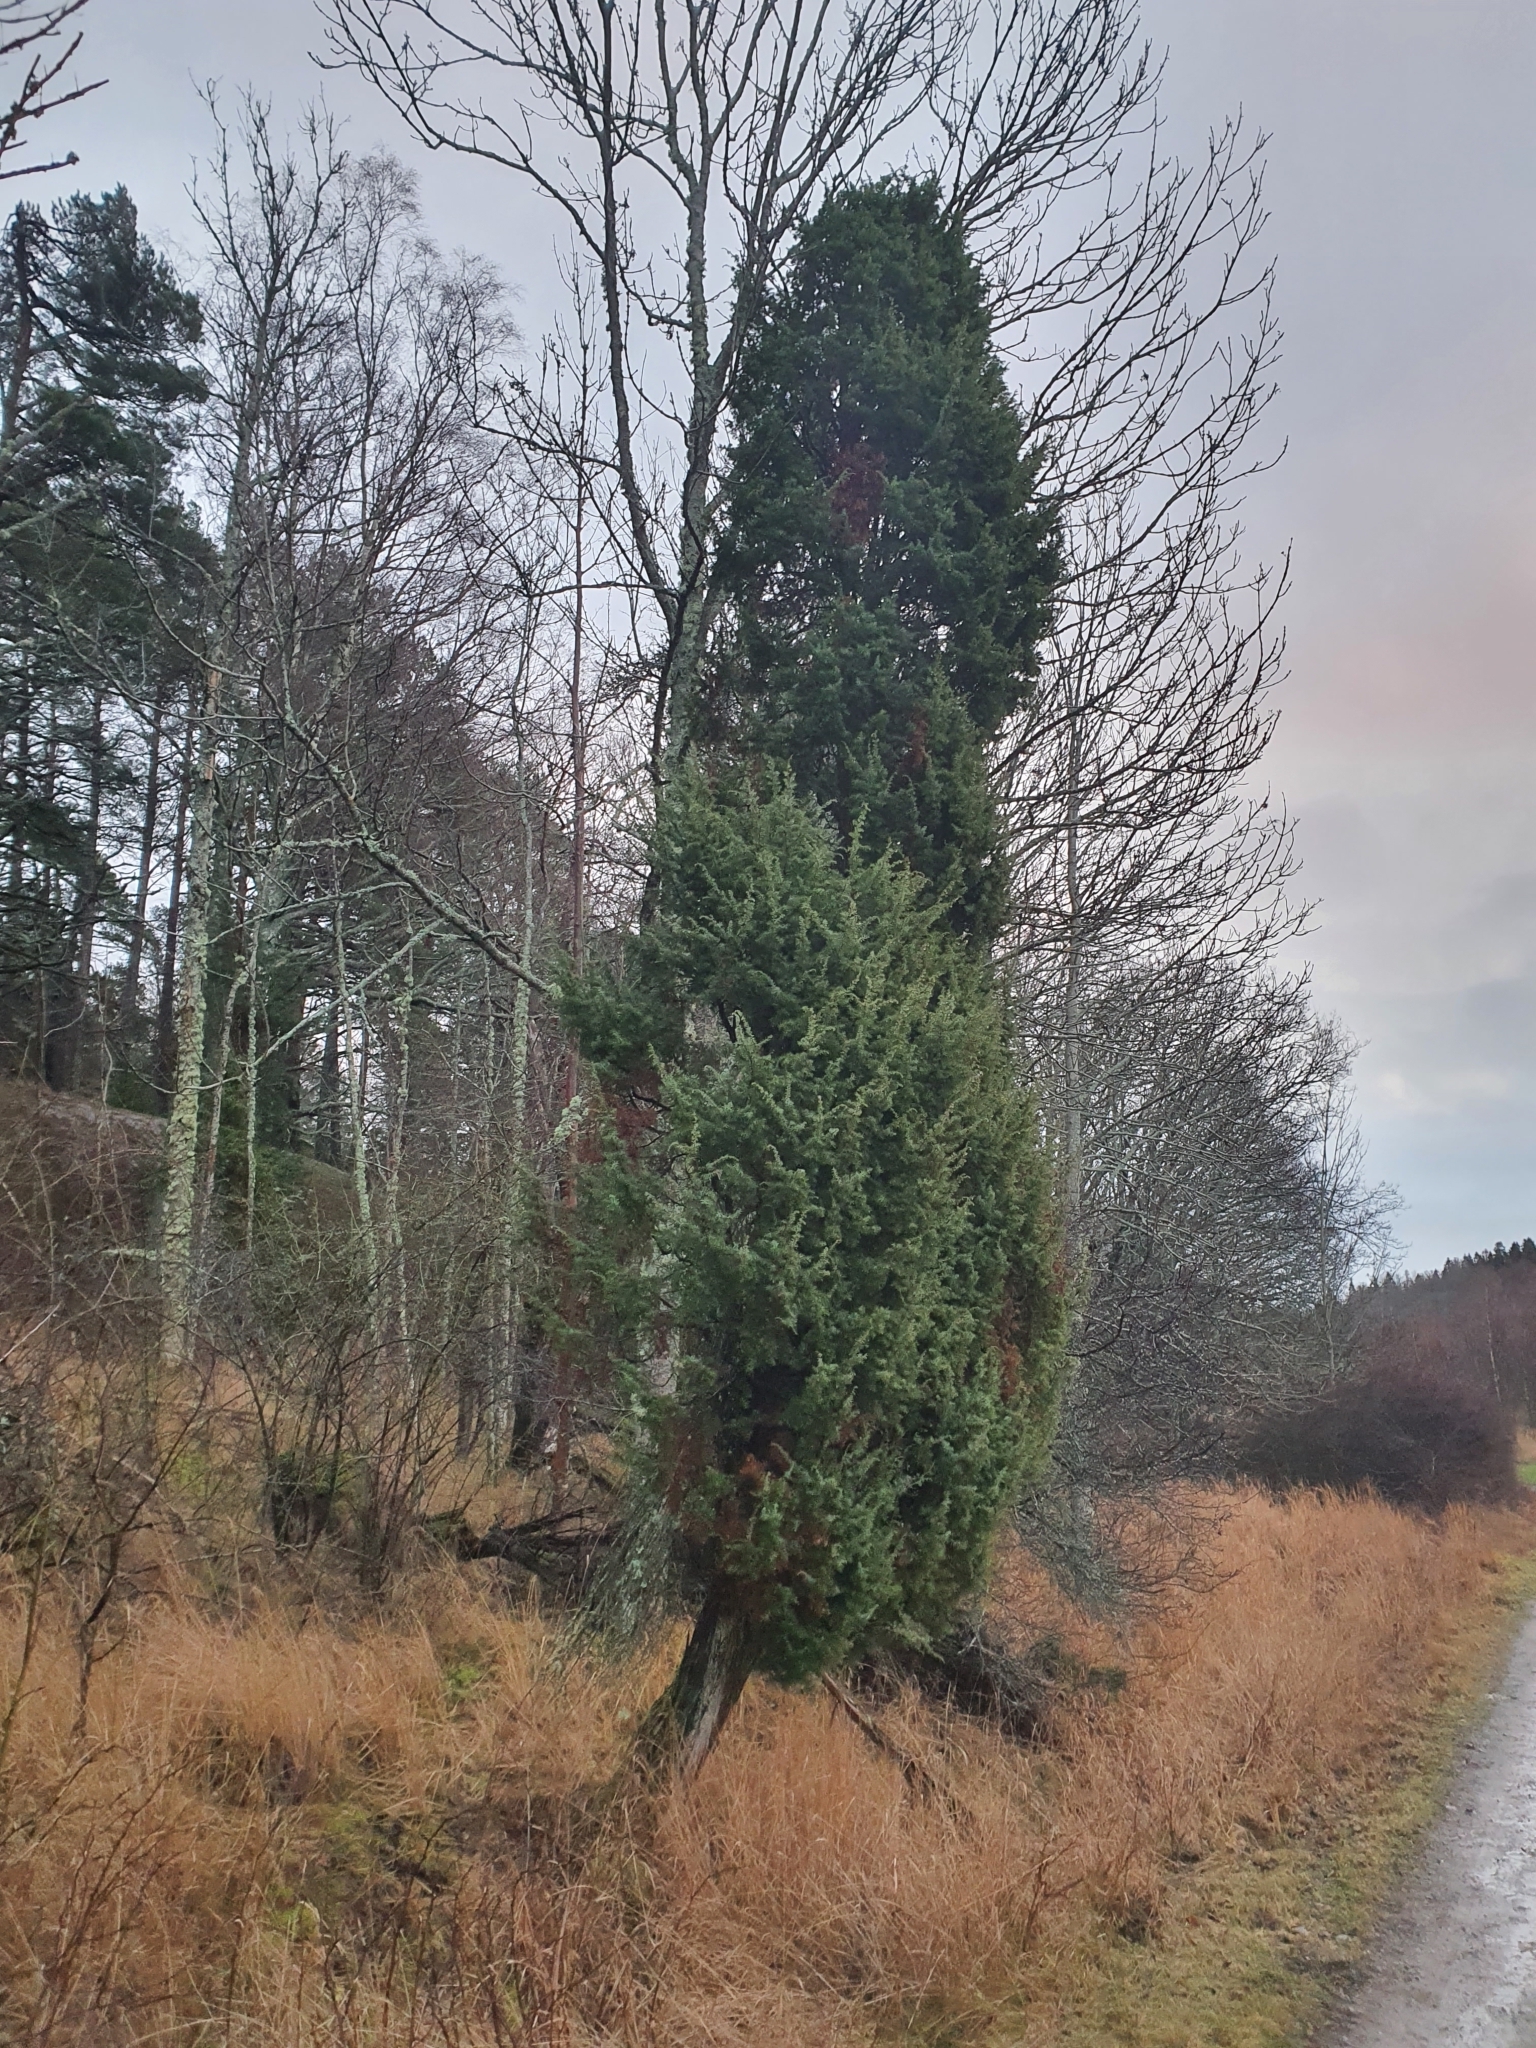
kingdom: Plantae
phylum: Tracheophyta
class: Pinopsida
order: Pinales
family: Cupressaceae
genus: Juniperus
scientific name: Juniperus communis
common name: Common juniper
